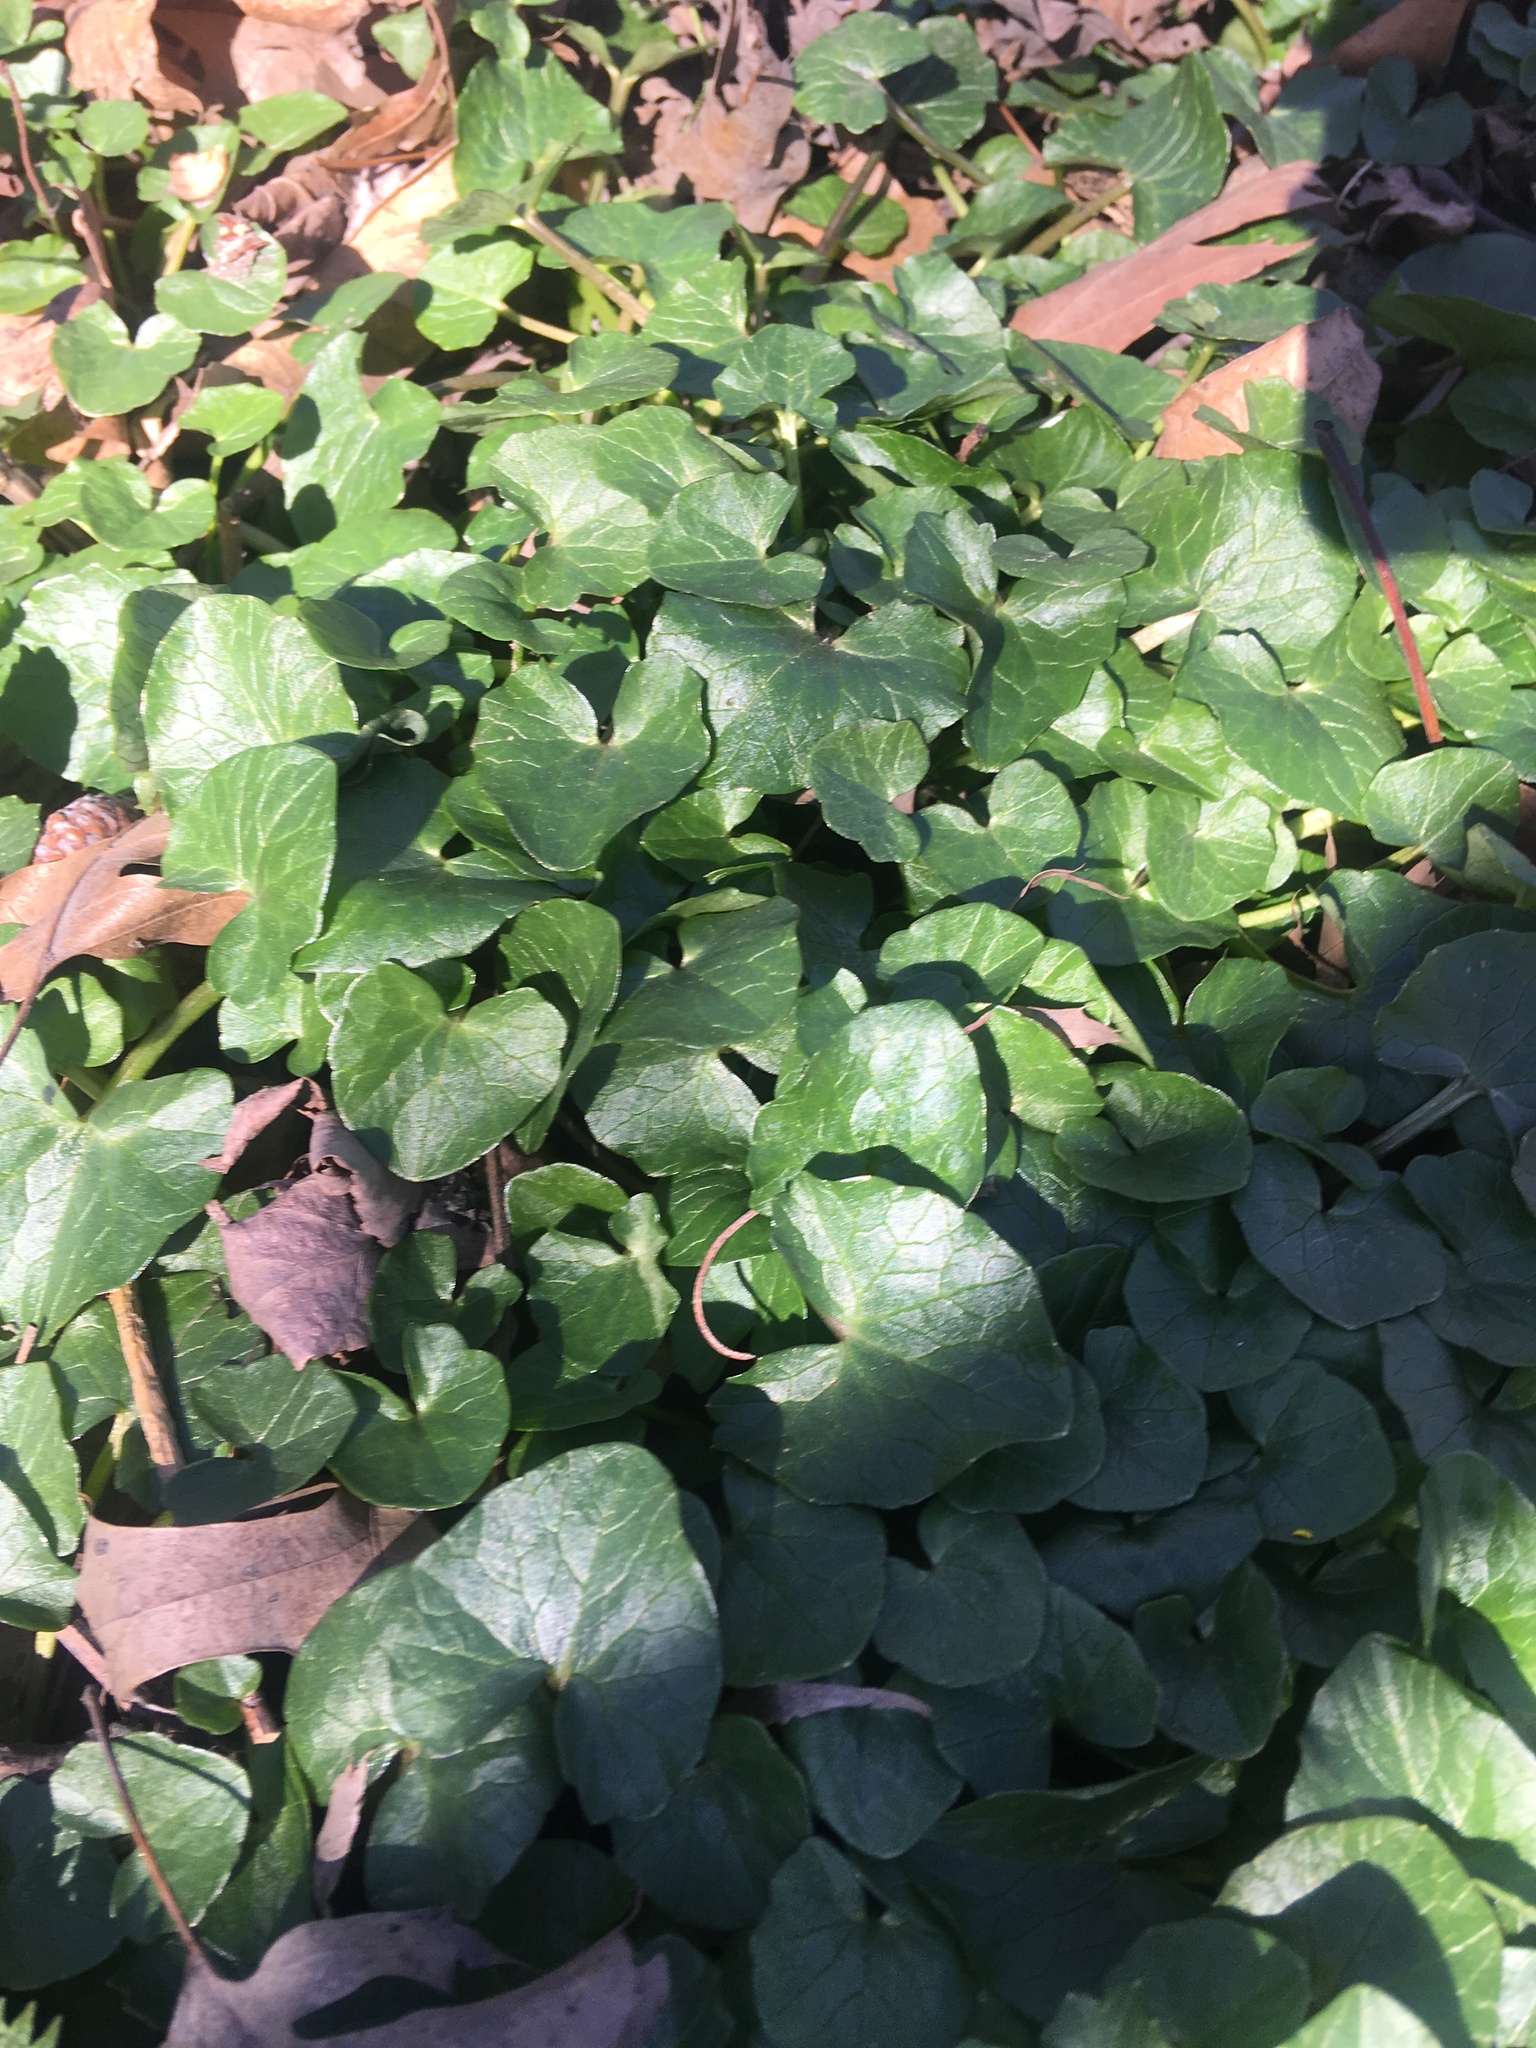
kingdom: Plantae
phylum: Tracheophyta
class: Magnoliopsida
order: Ranunculales
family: Ranunculaceae
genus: Ficaria
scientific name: Ficaria verna
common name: Lesser celandine
